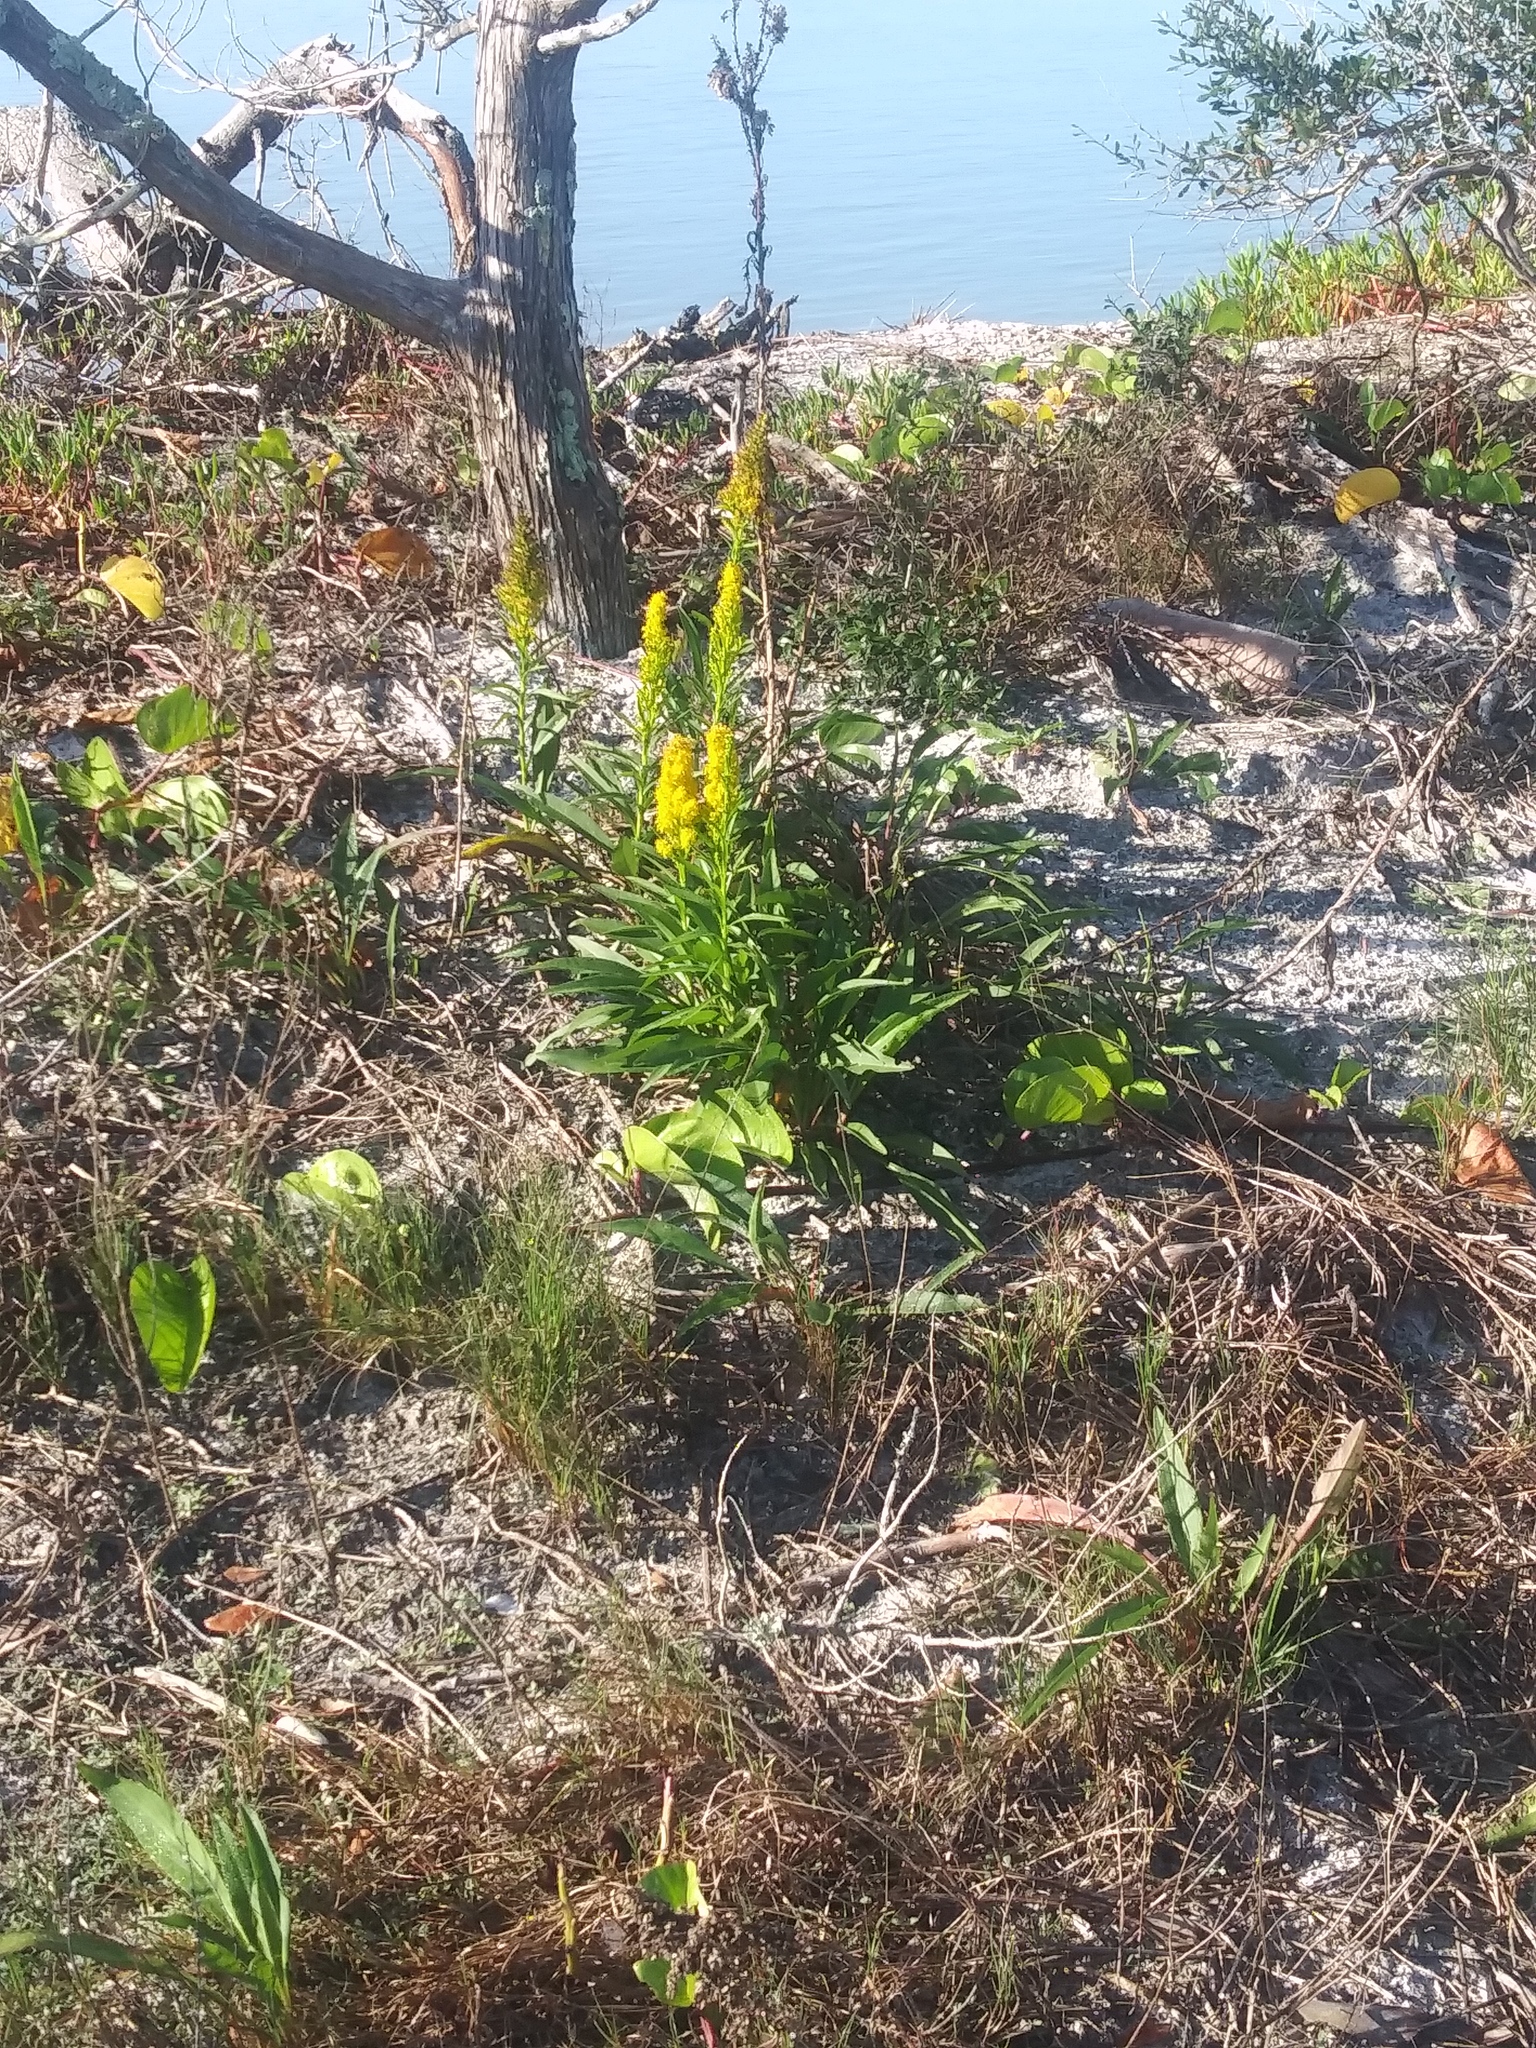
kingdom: Plantae
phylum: Tracheophyta
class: Magnoliopsida
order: Asterales
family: Asteraceae
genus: Solidago
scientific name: Solidago mexicana
